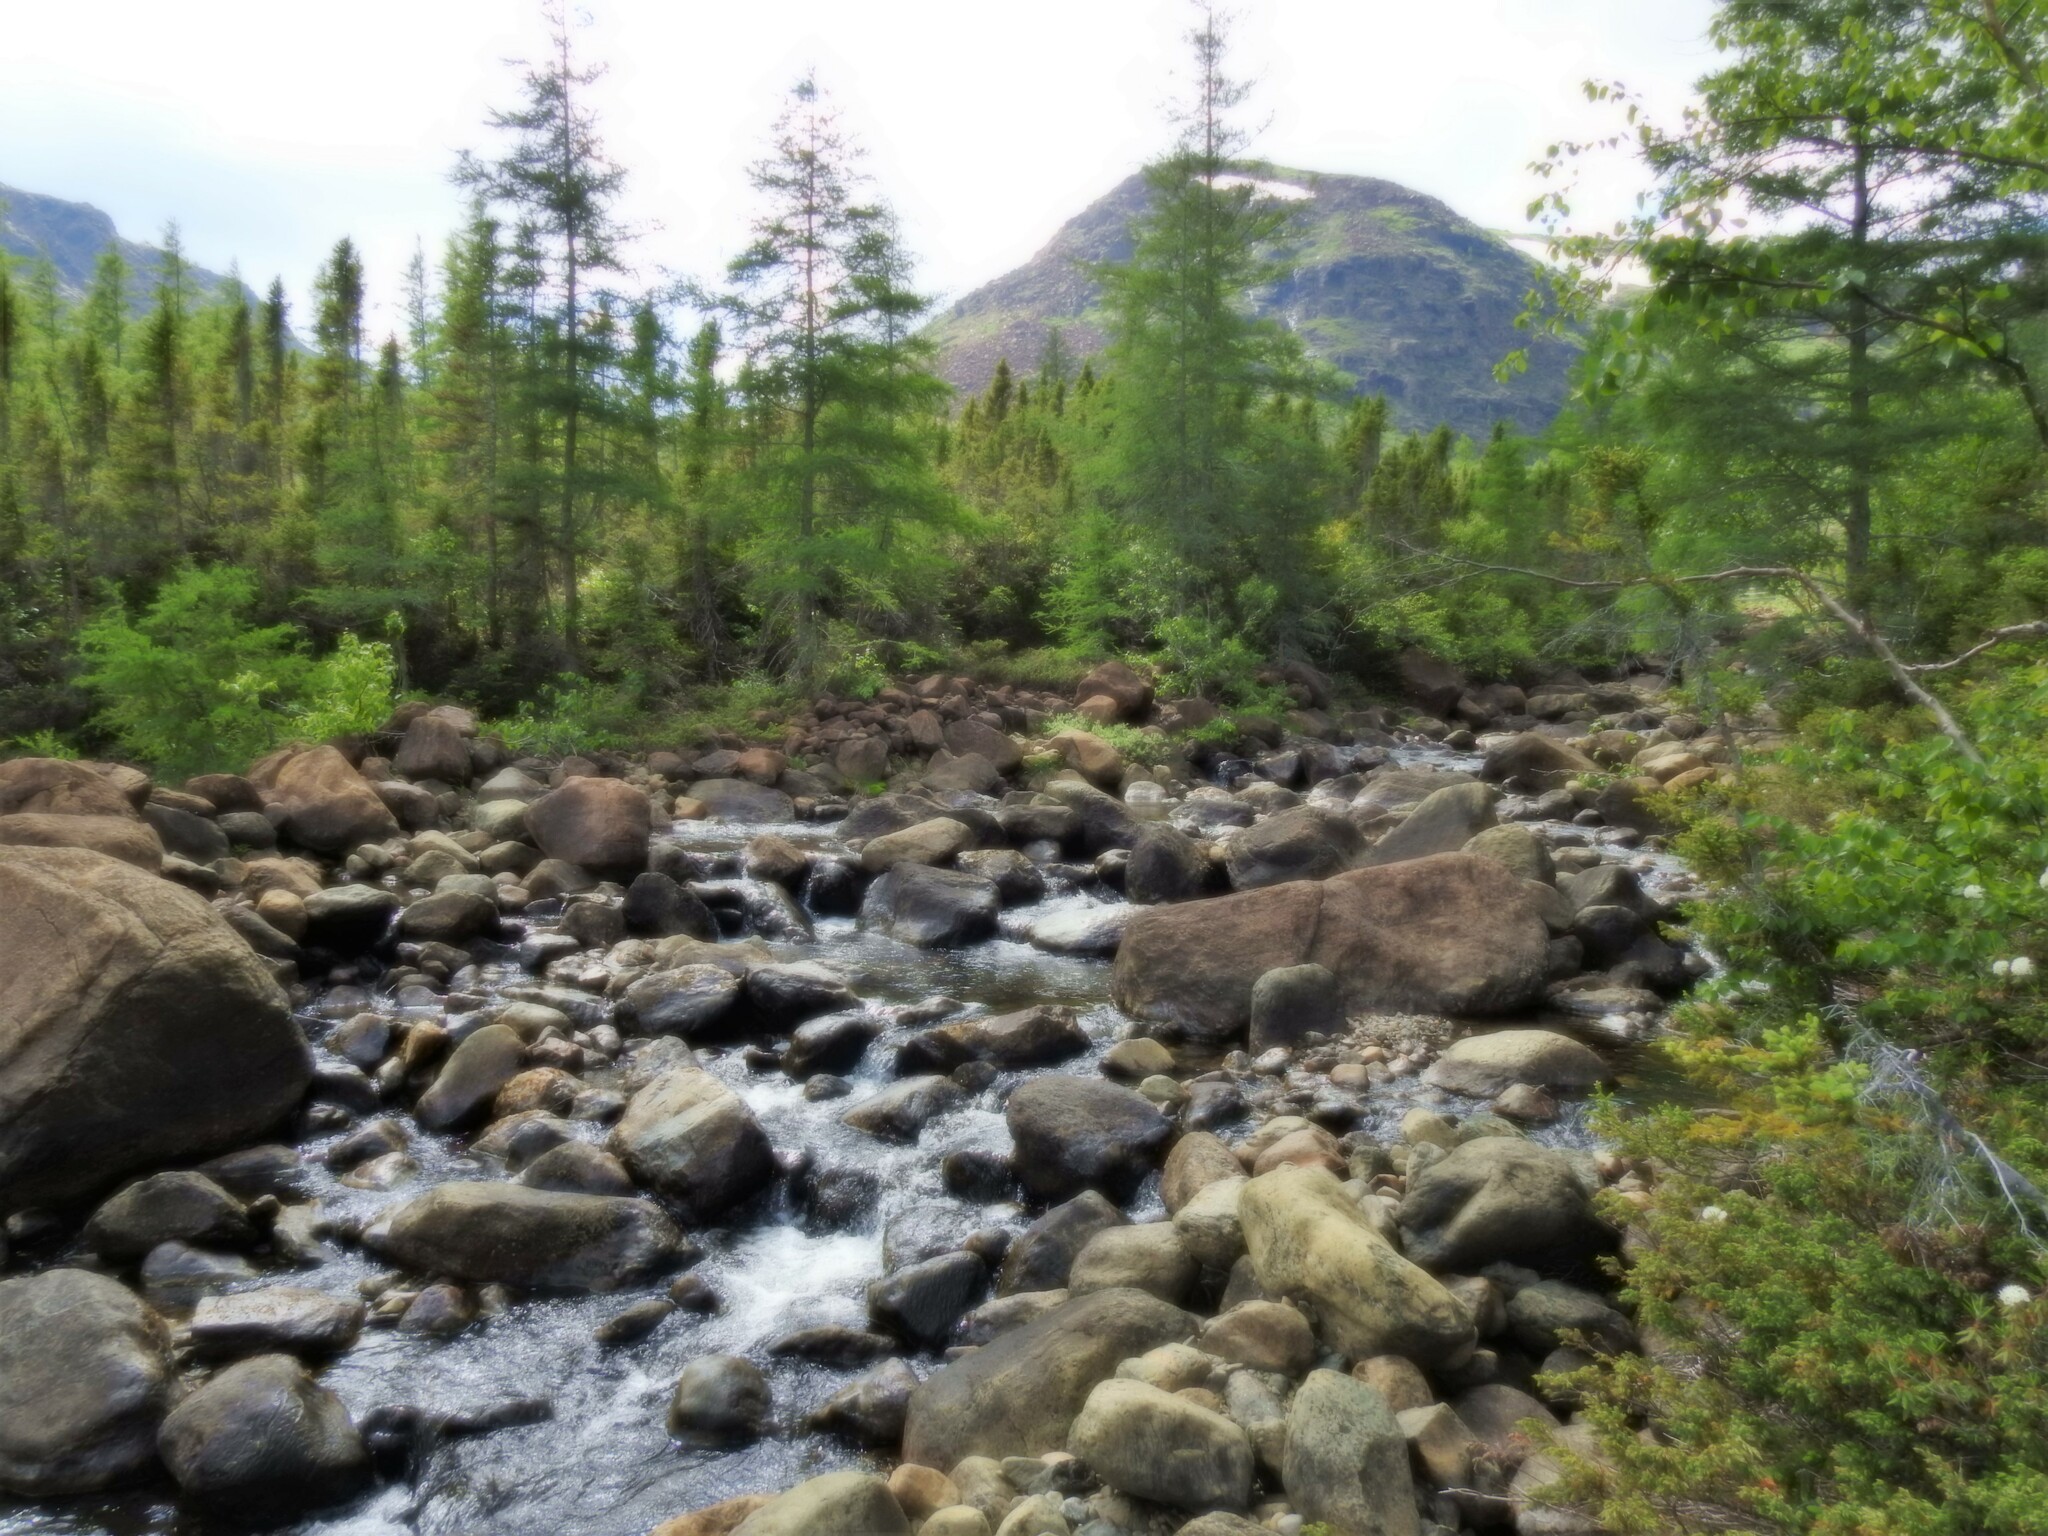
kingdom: Plantae
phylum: Tracheophyta
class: Pinopsida
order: Pinales
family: Pinaceae
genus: Larix
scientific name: Larix laricina
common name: American larch
